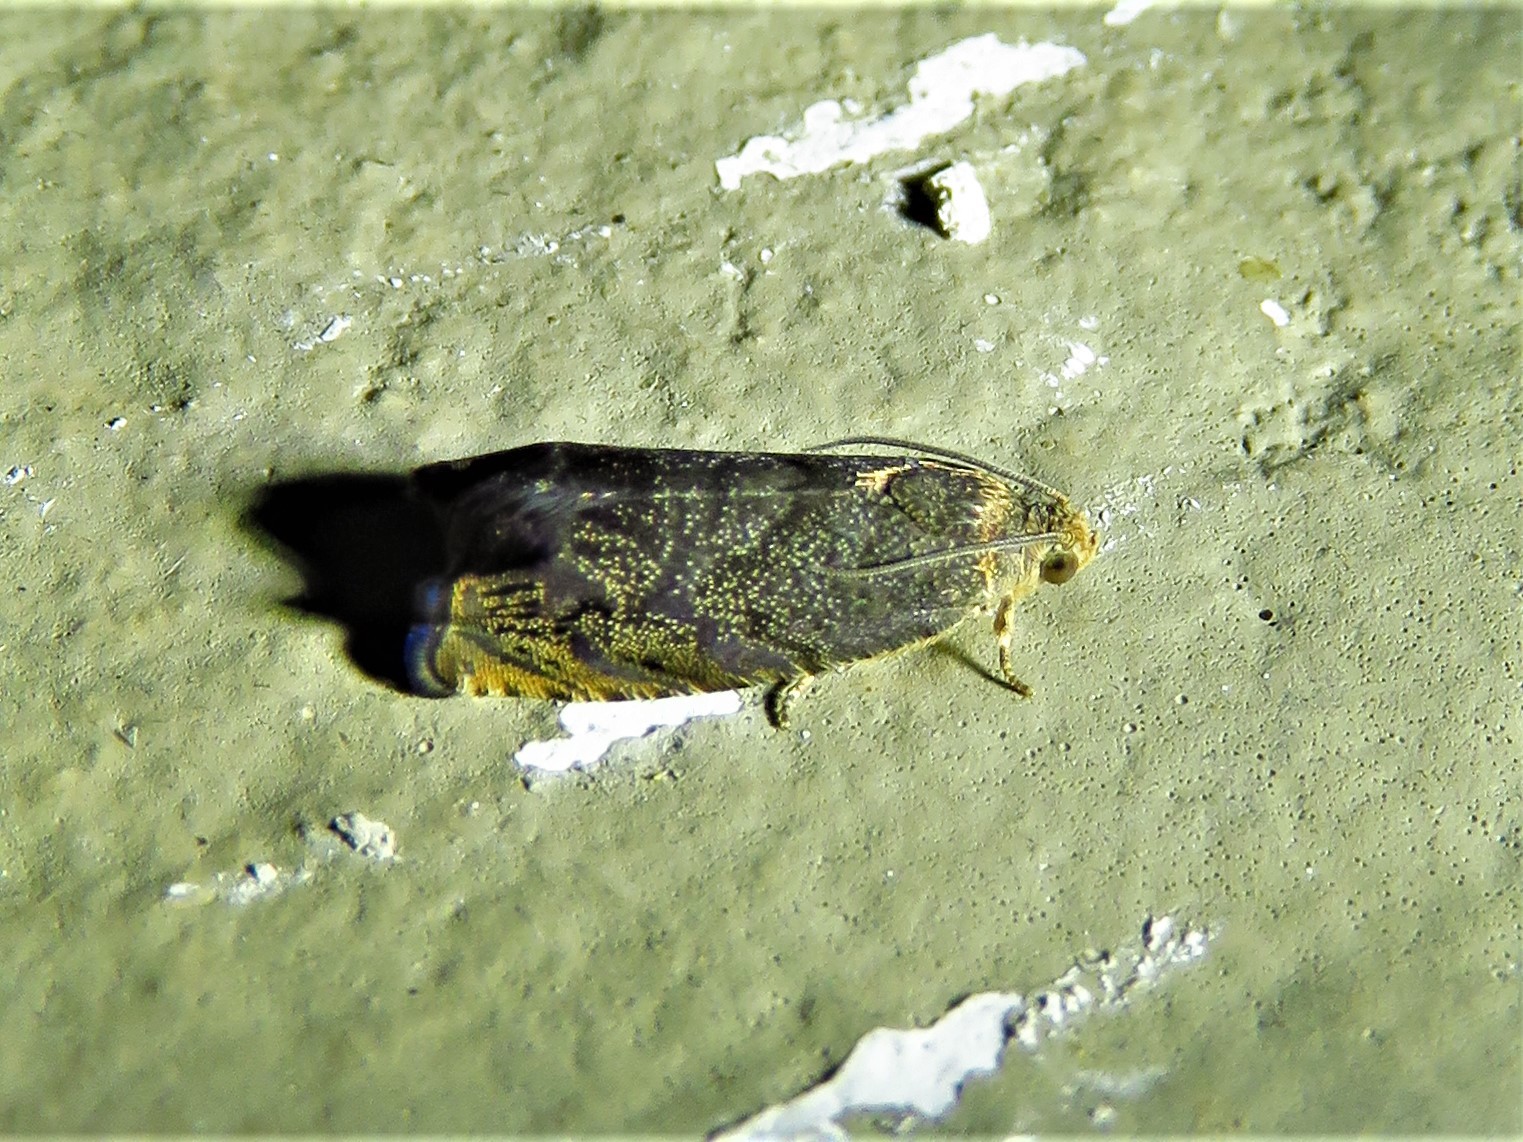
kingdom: Animalia
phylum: Arthropoda
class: Insecta
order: Lepidoptera
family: Tortricidae
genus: Cydia
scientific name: Cydia caryana
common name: Hickory shuckworm moth
